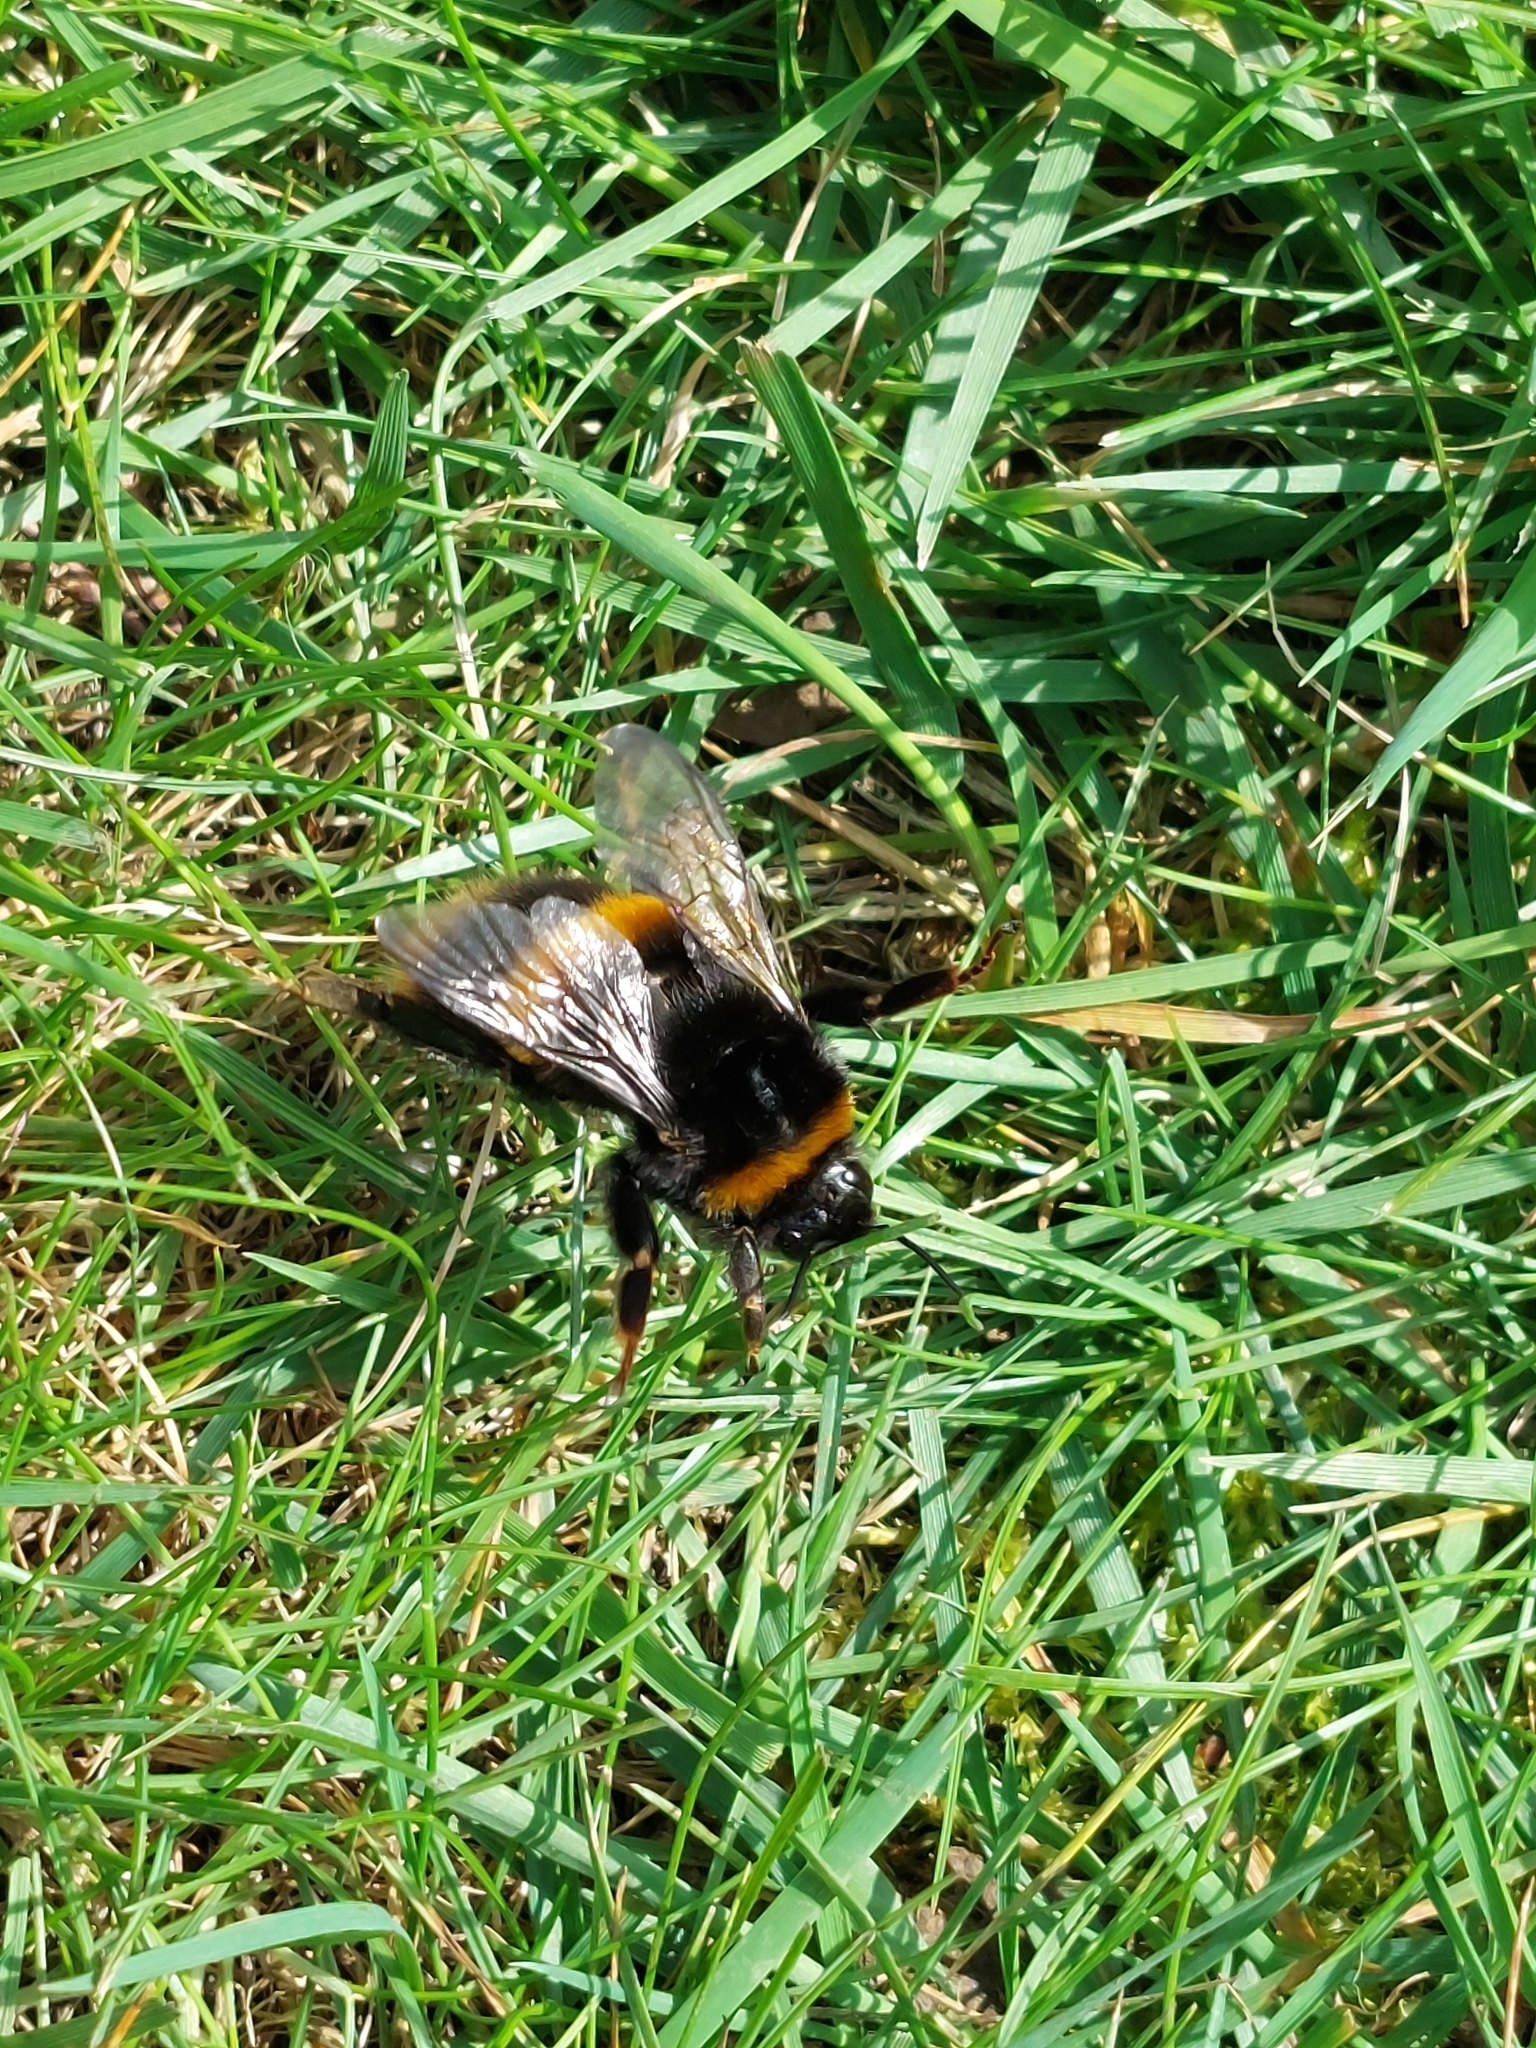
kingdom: Animalia
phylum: Arthropoda
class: Insecta
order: Hymenoptera
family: Apidae
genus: Bombus
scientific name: Bombus terrestris
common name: Buff-tailed bumblebee
